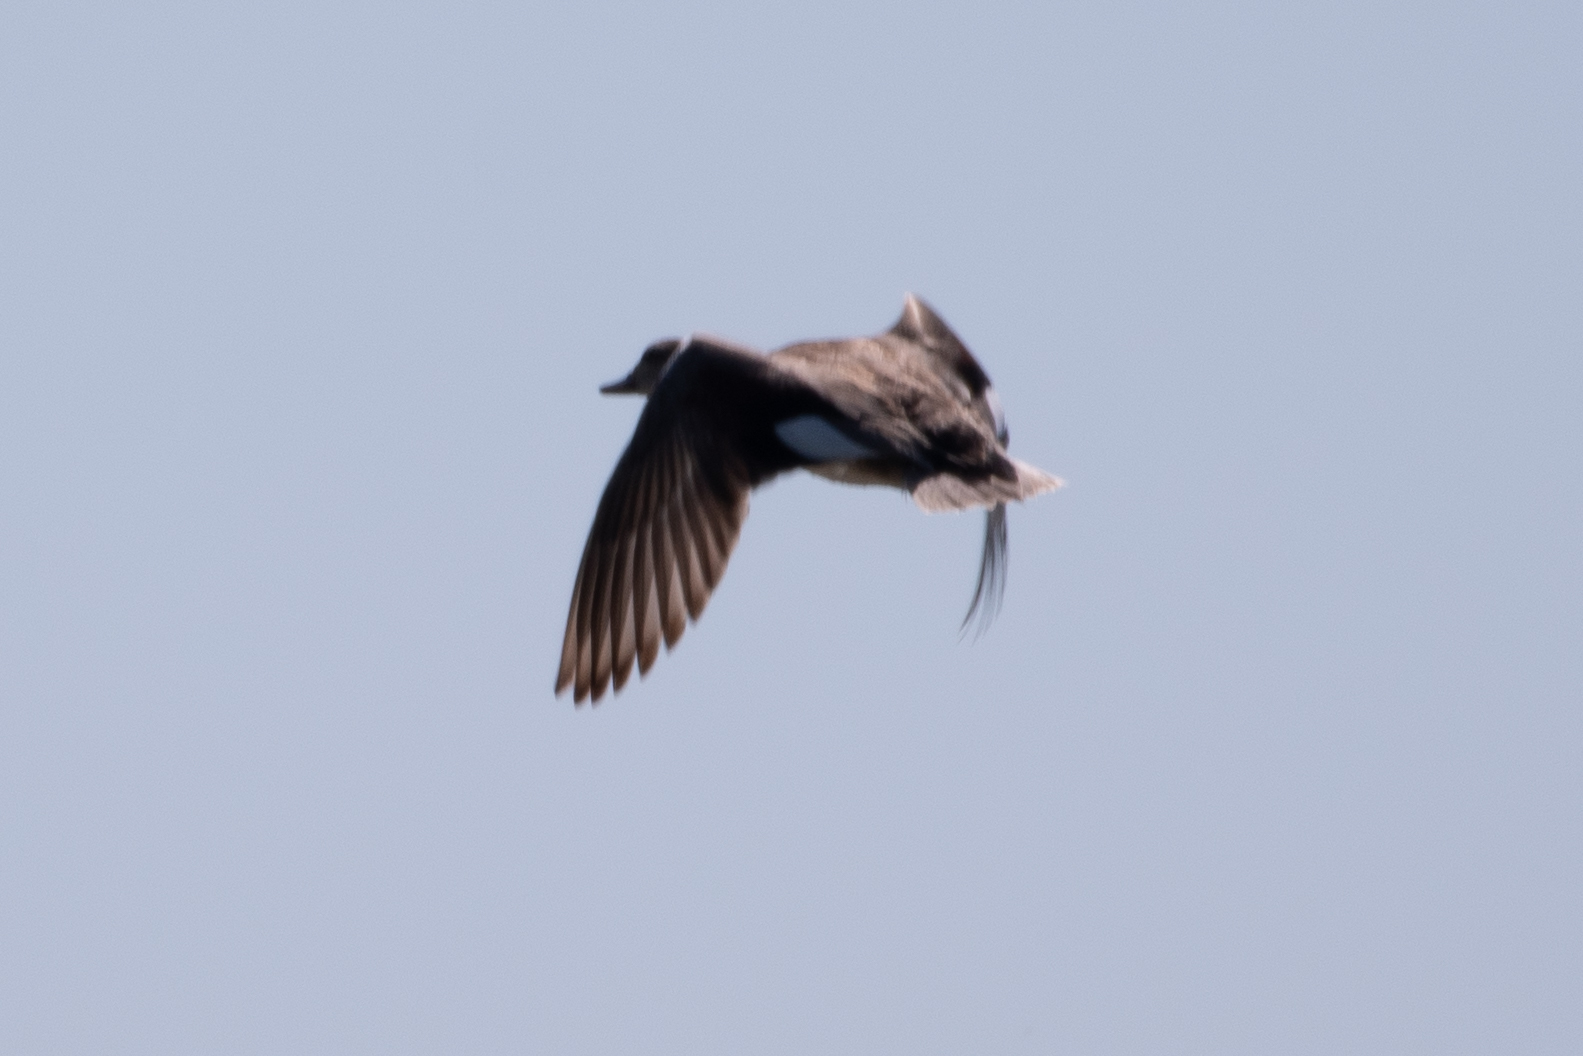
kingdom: Animalia
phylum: Chordata
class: Aves
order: Anseriformes
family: Anatidae
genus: Mareca
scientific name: Mareca strepera
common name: Gadwall
